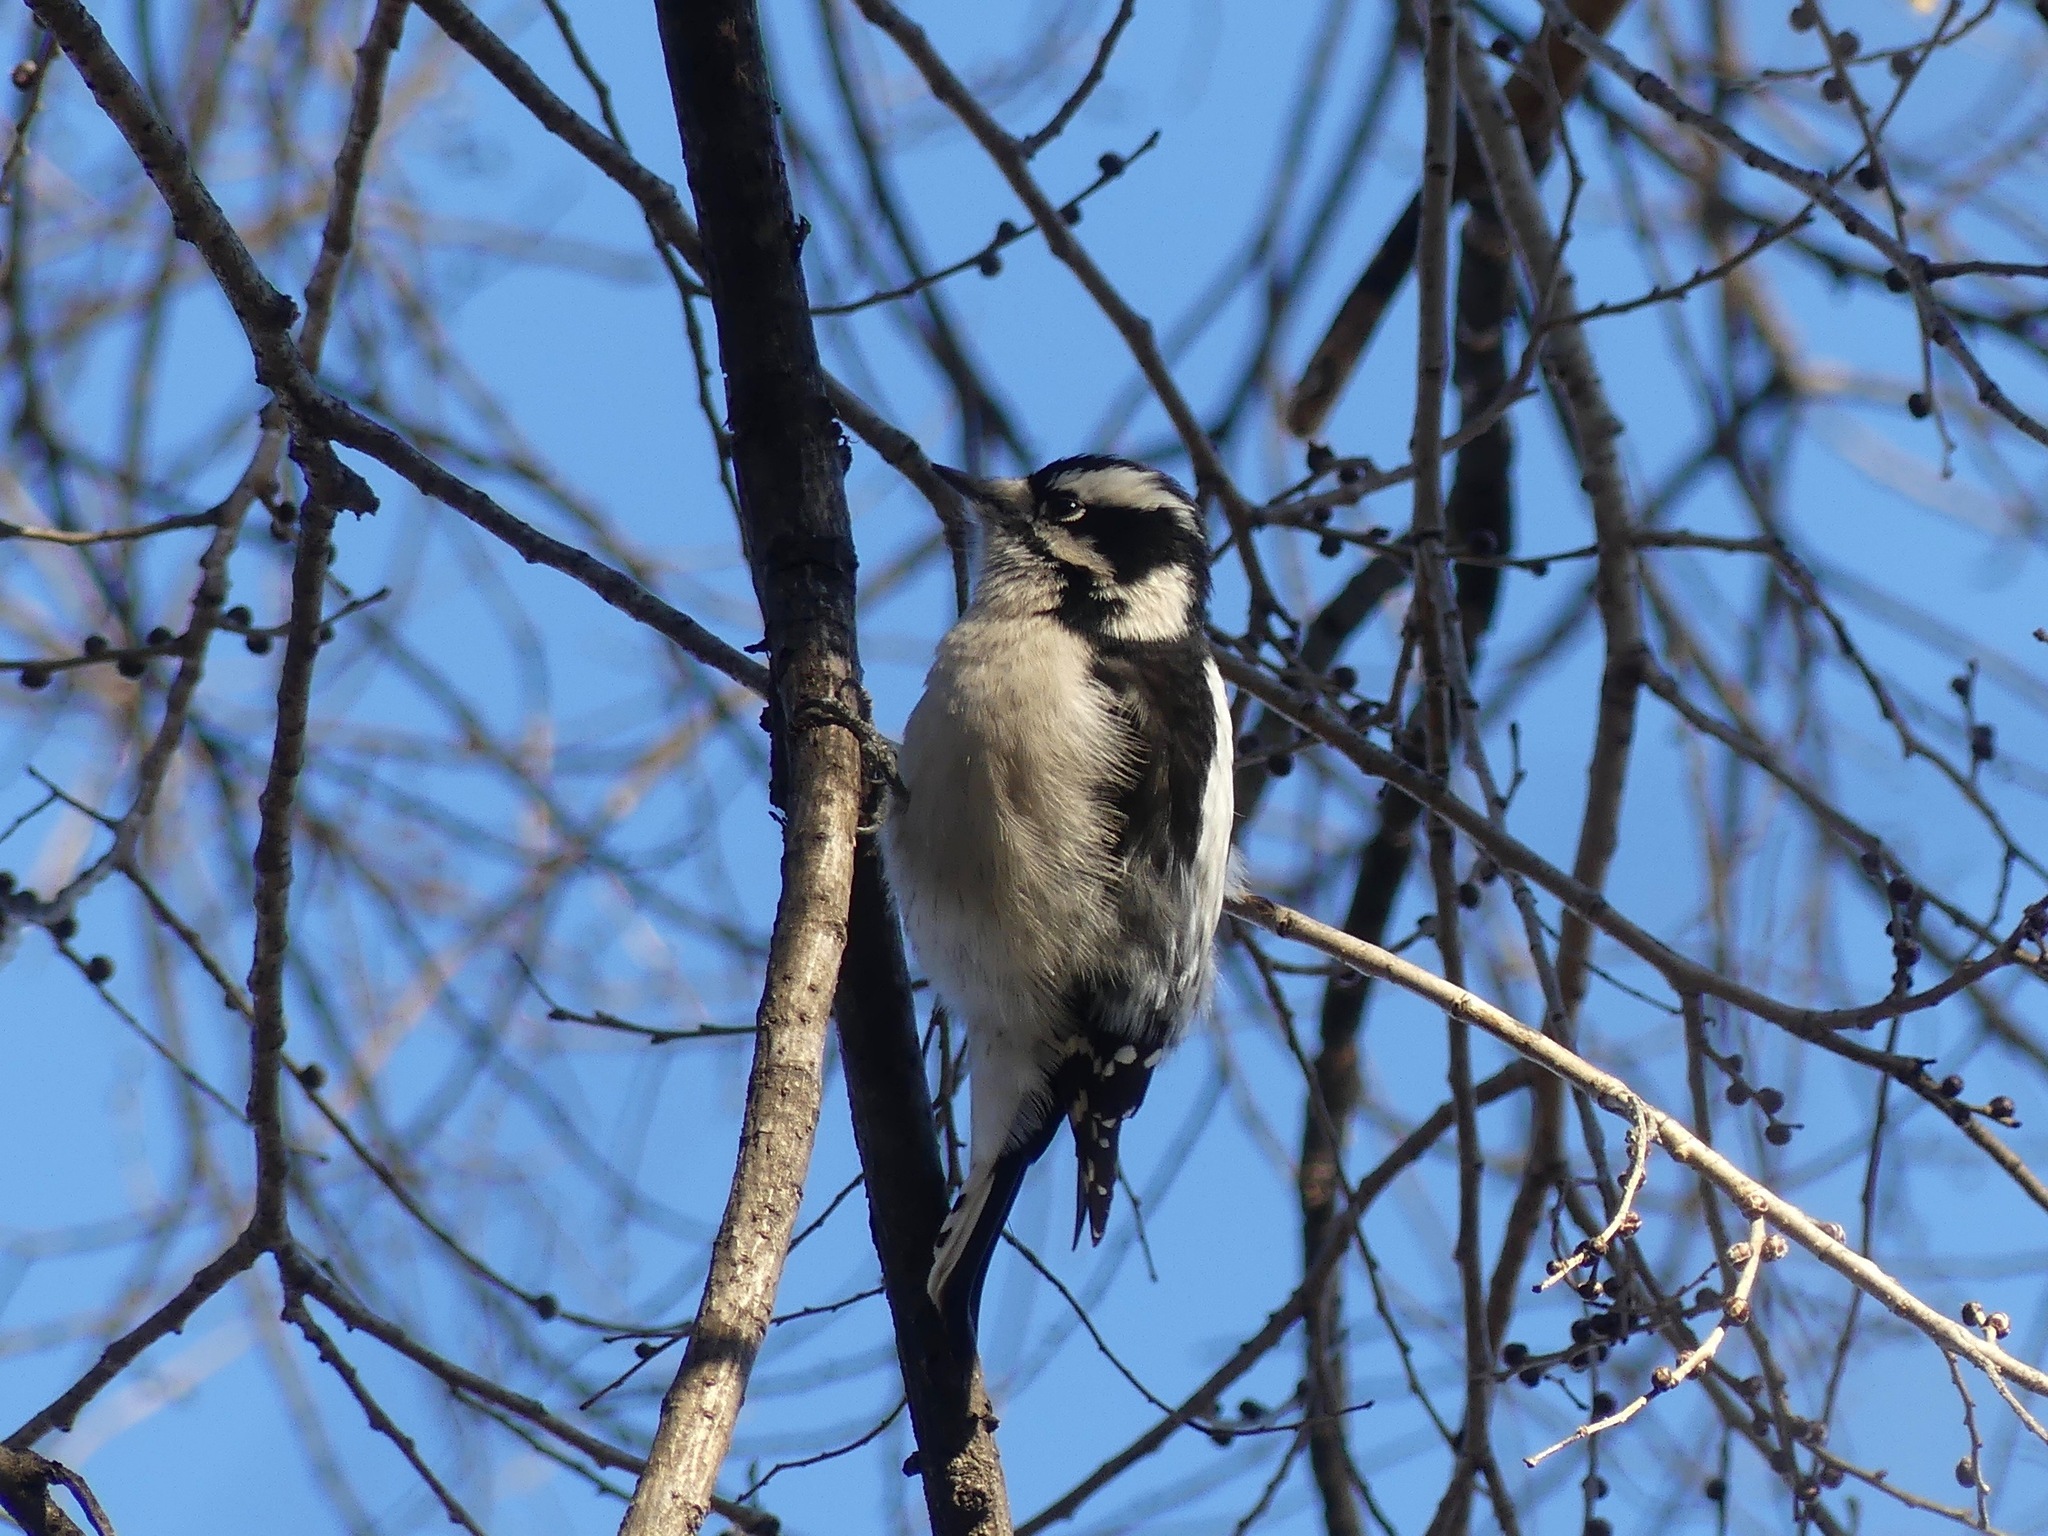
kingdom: Animalia
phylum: Chordata
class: Aves
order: Piciformes
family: Picidae
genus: Dryobates
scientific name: Dryobates pubescens
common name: Downy woodpecker
